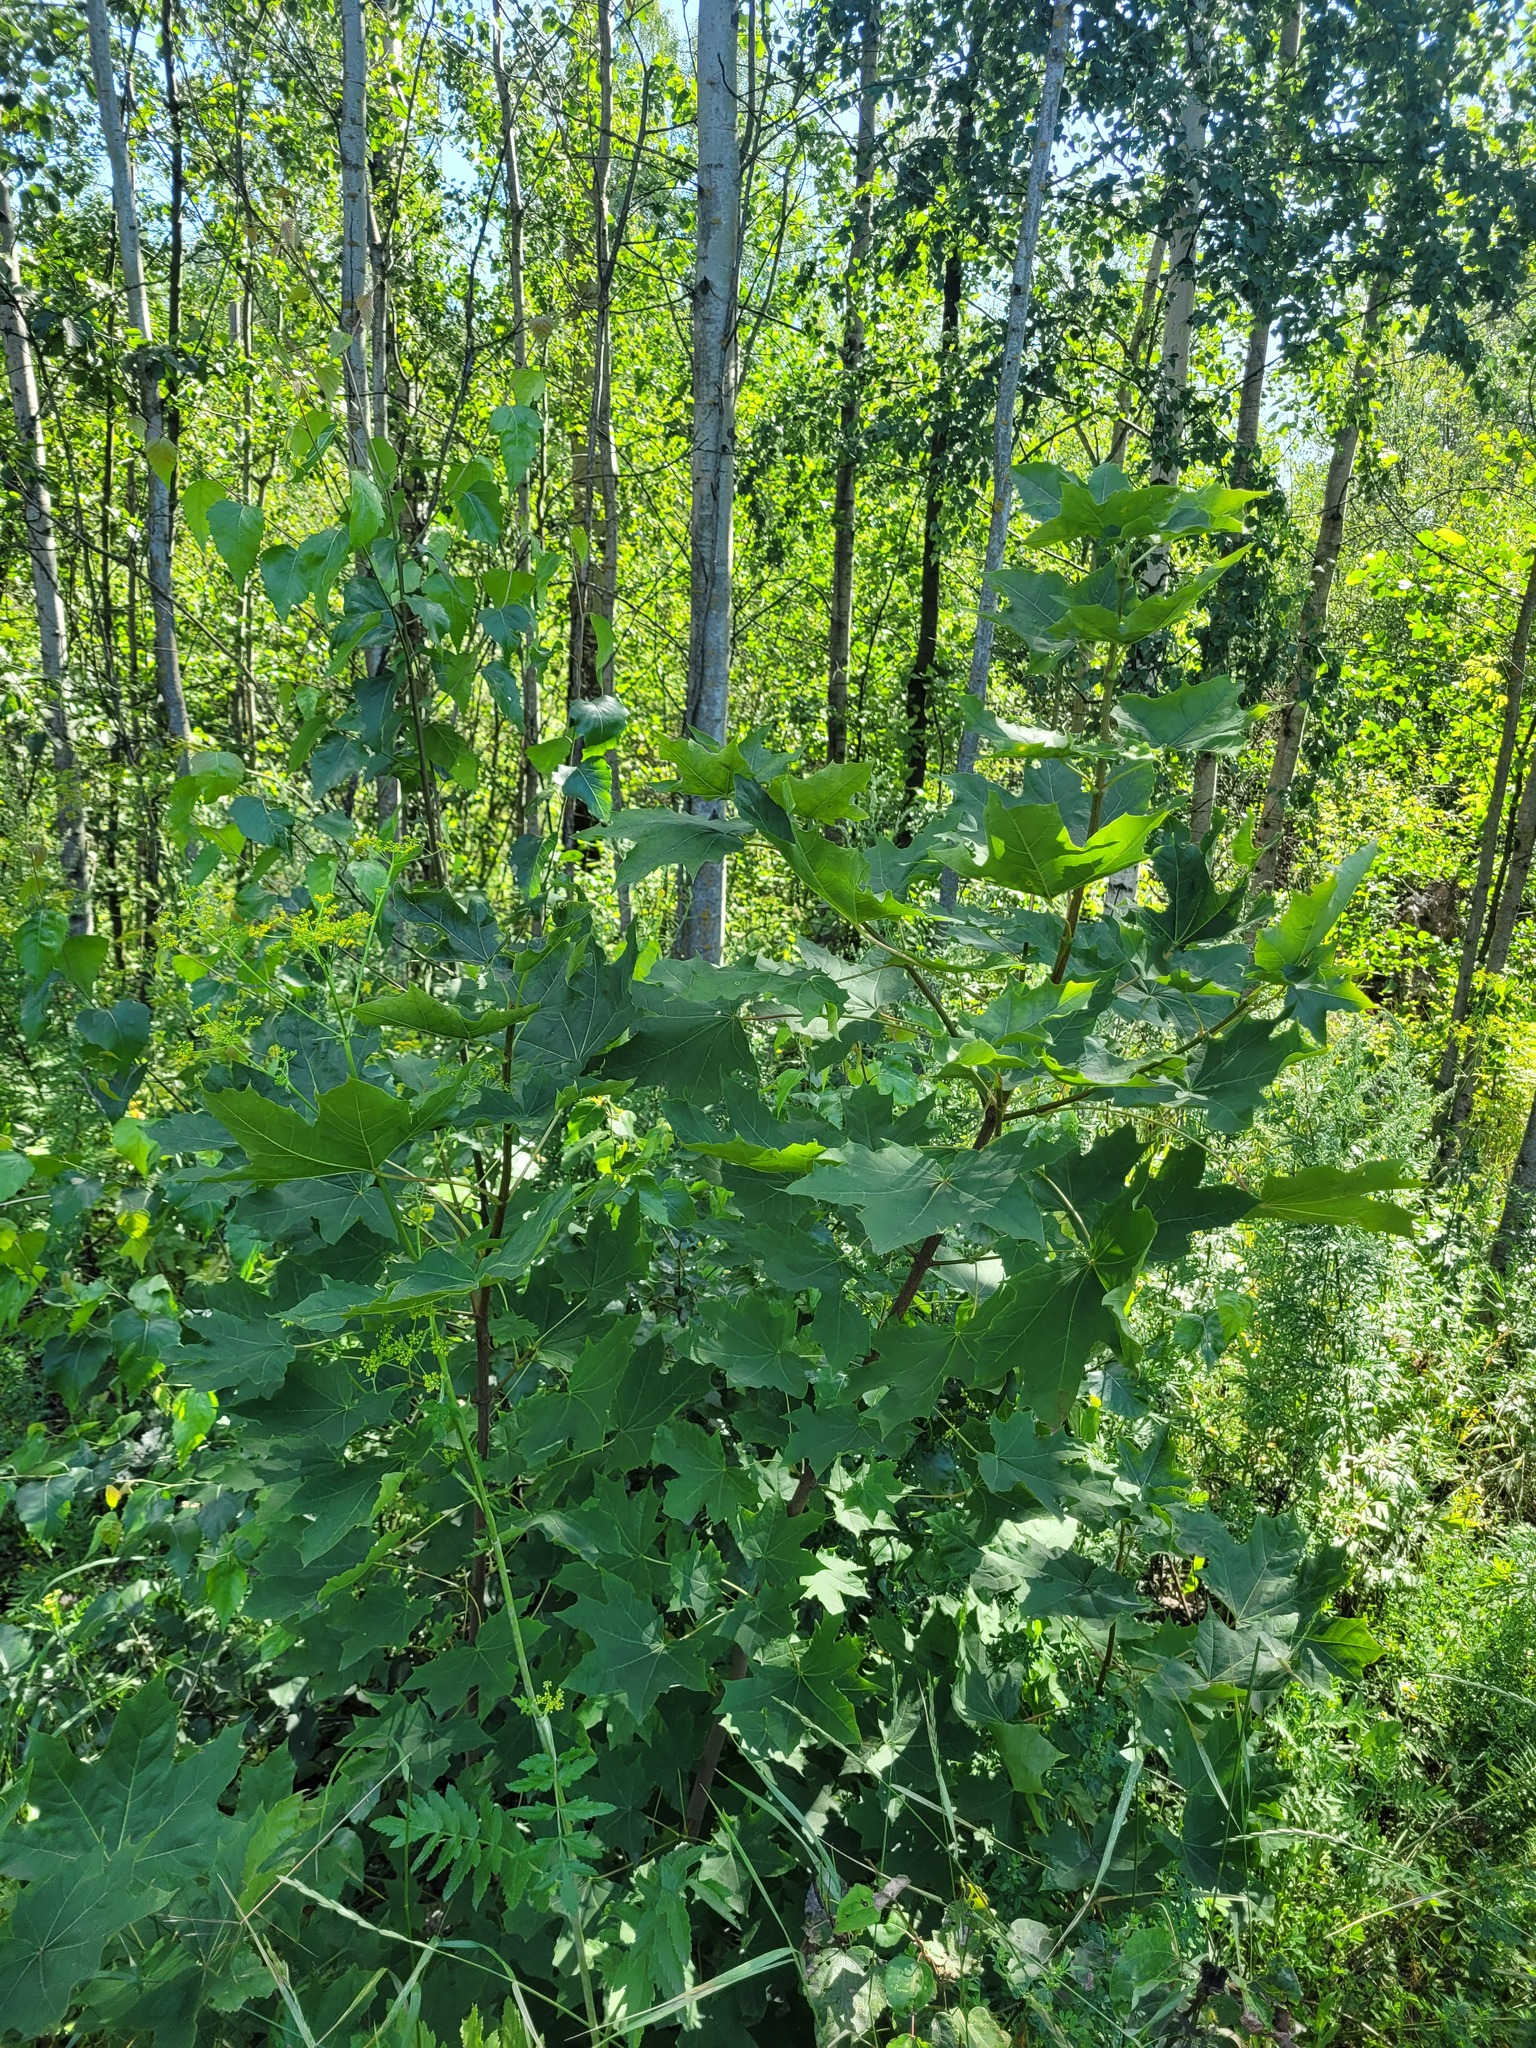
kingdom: Plantae
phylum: Tracheophyta
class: Magnoliopsida
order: Sapindales
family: Sapindaceae
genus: Acer
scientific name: Acer platanoides
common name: Norway maple
